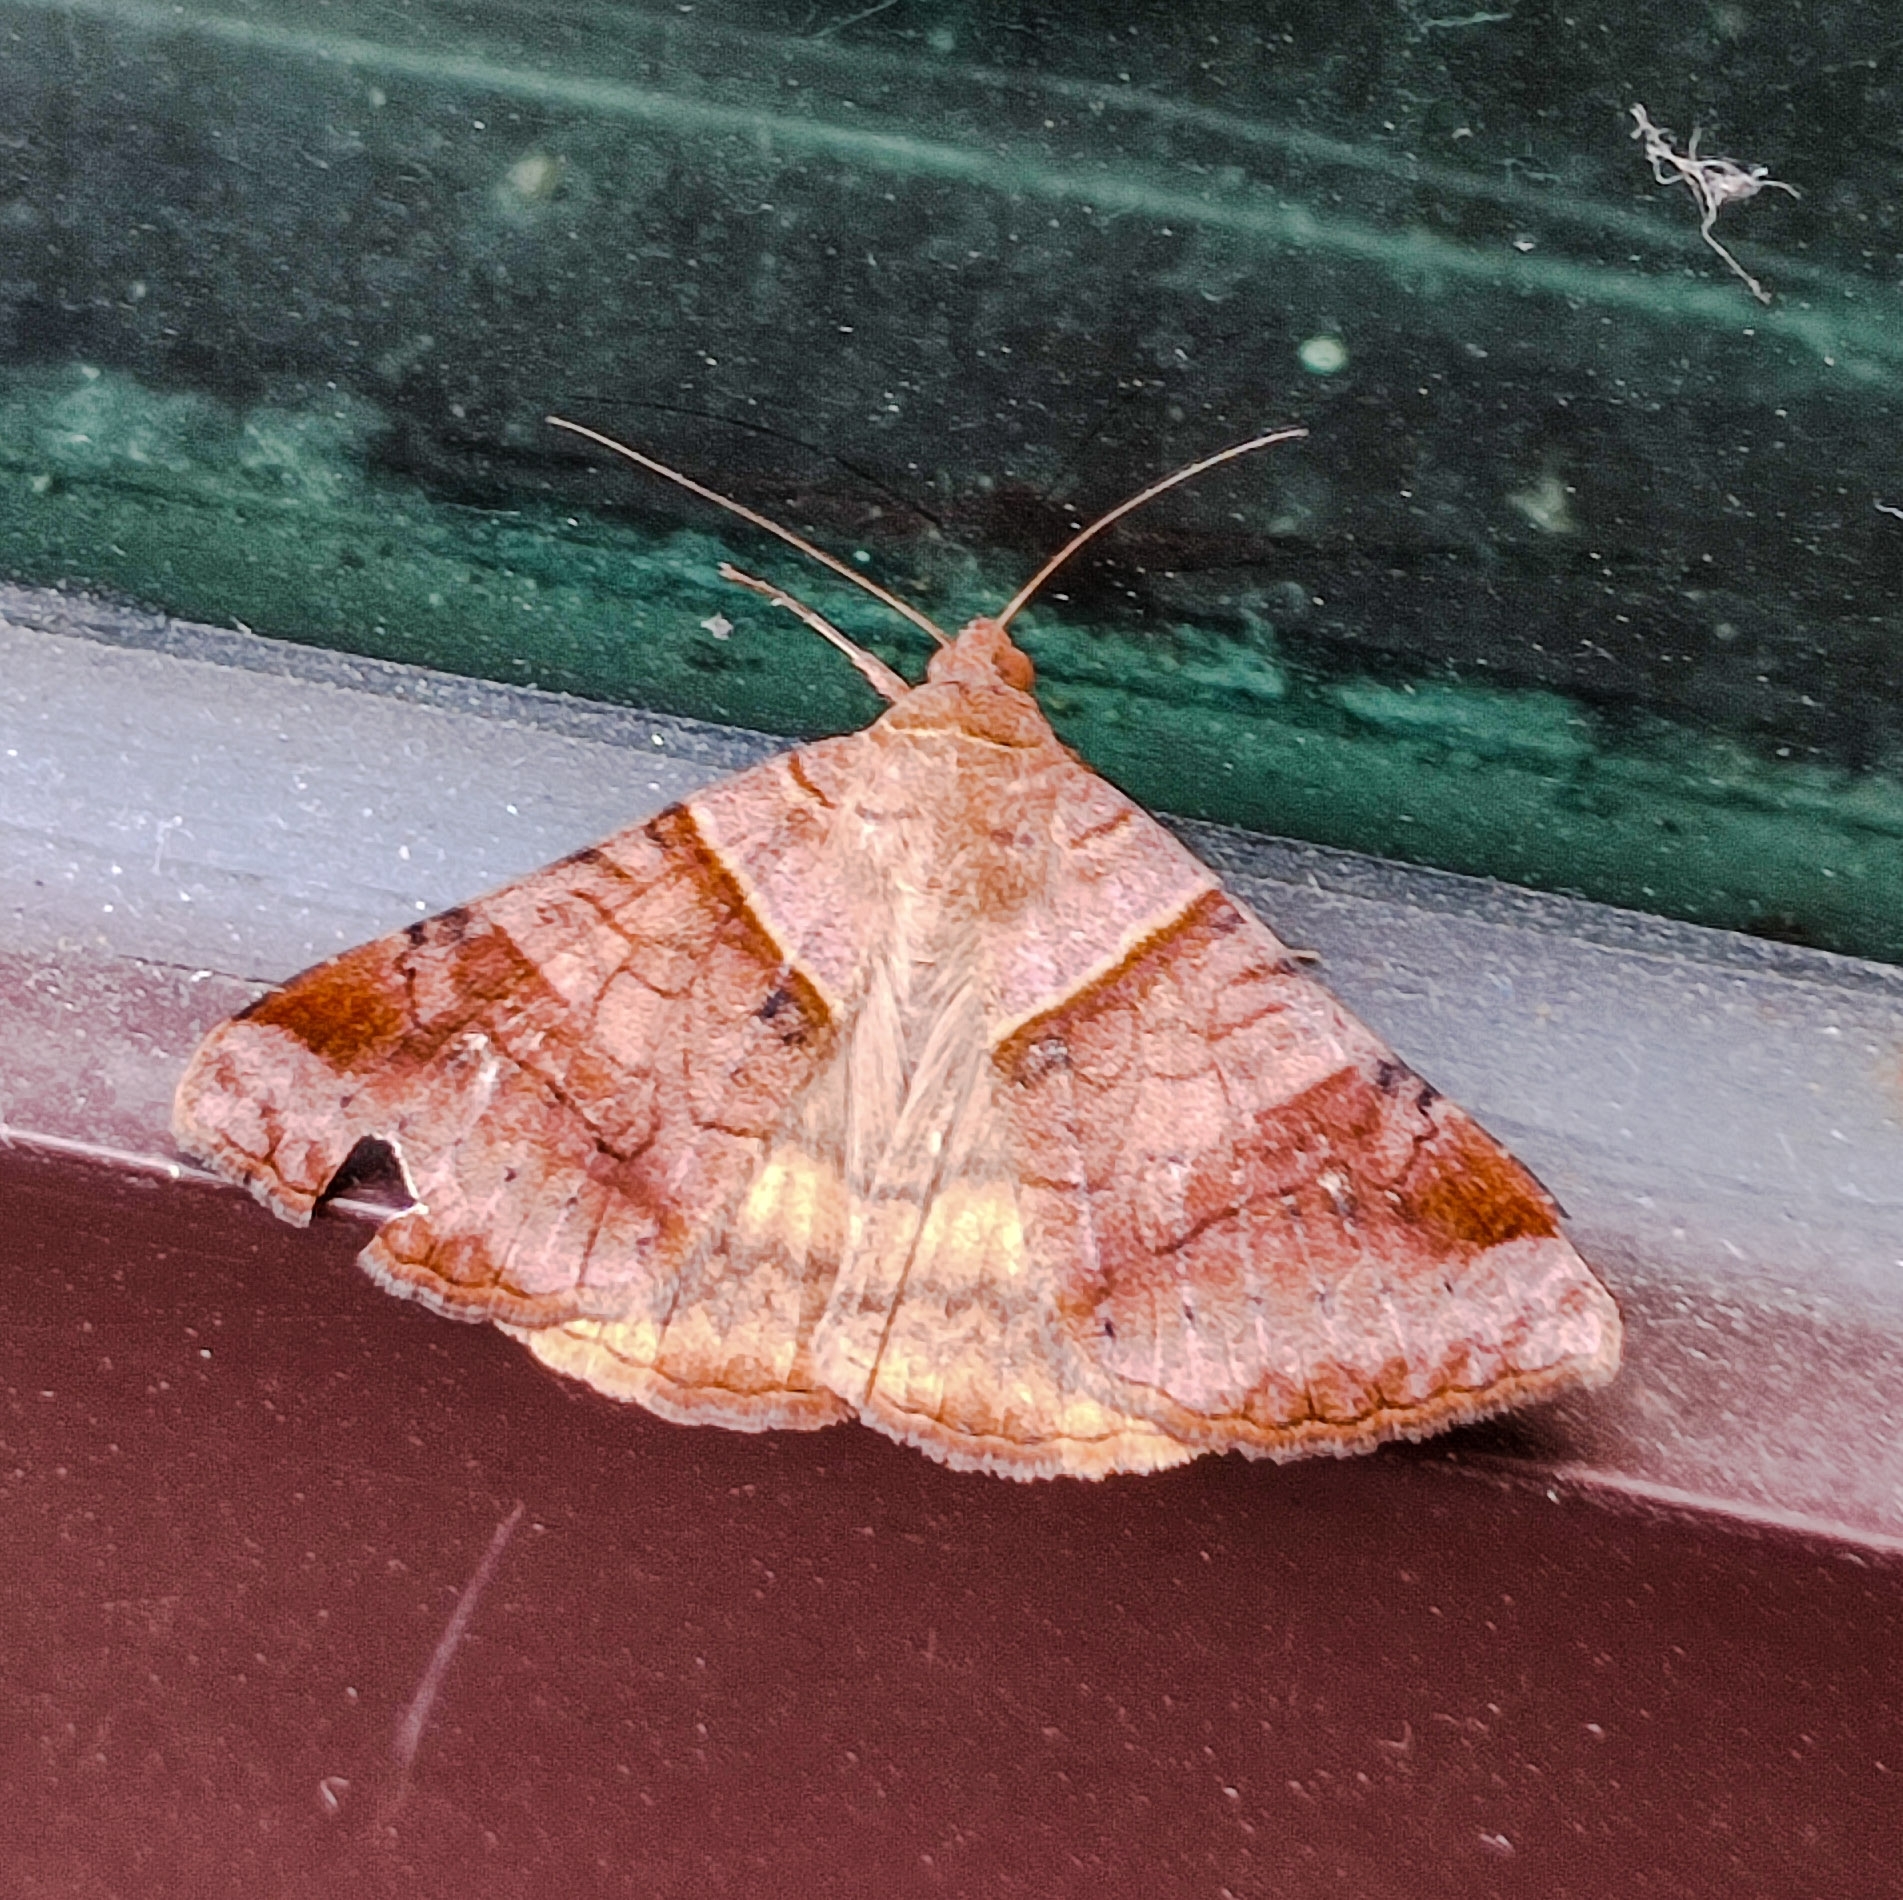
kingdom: Animalia
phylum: Arthropoda
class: Insecta
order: Lepidoptera
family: Erebidae
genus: Mocis
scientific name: Mocis undata
